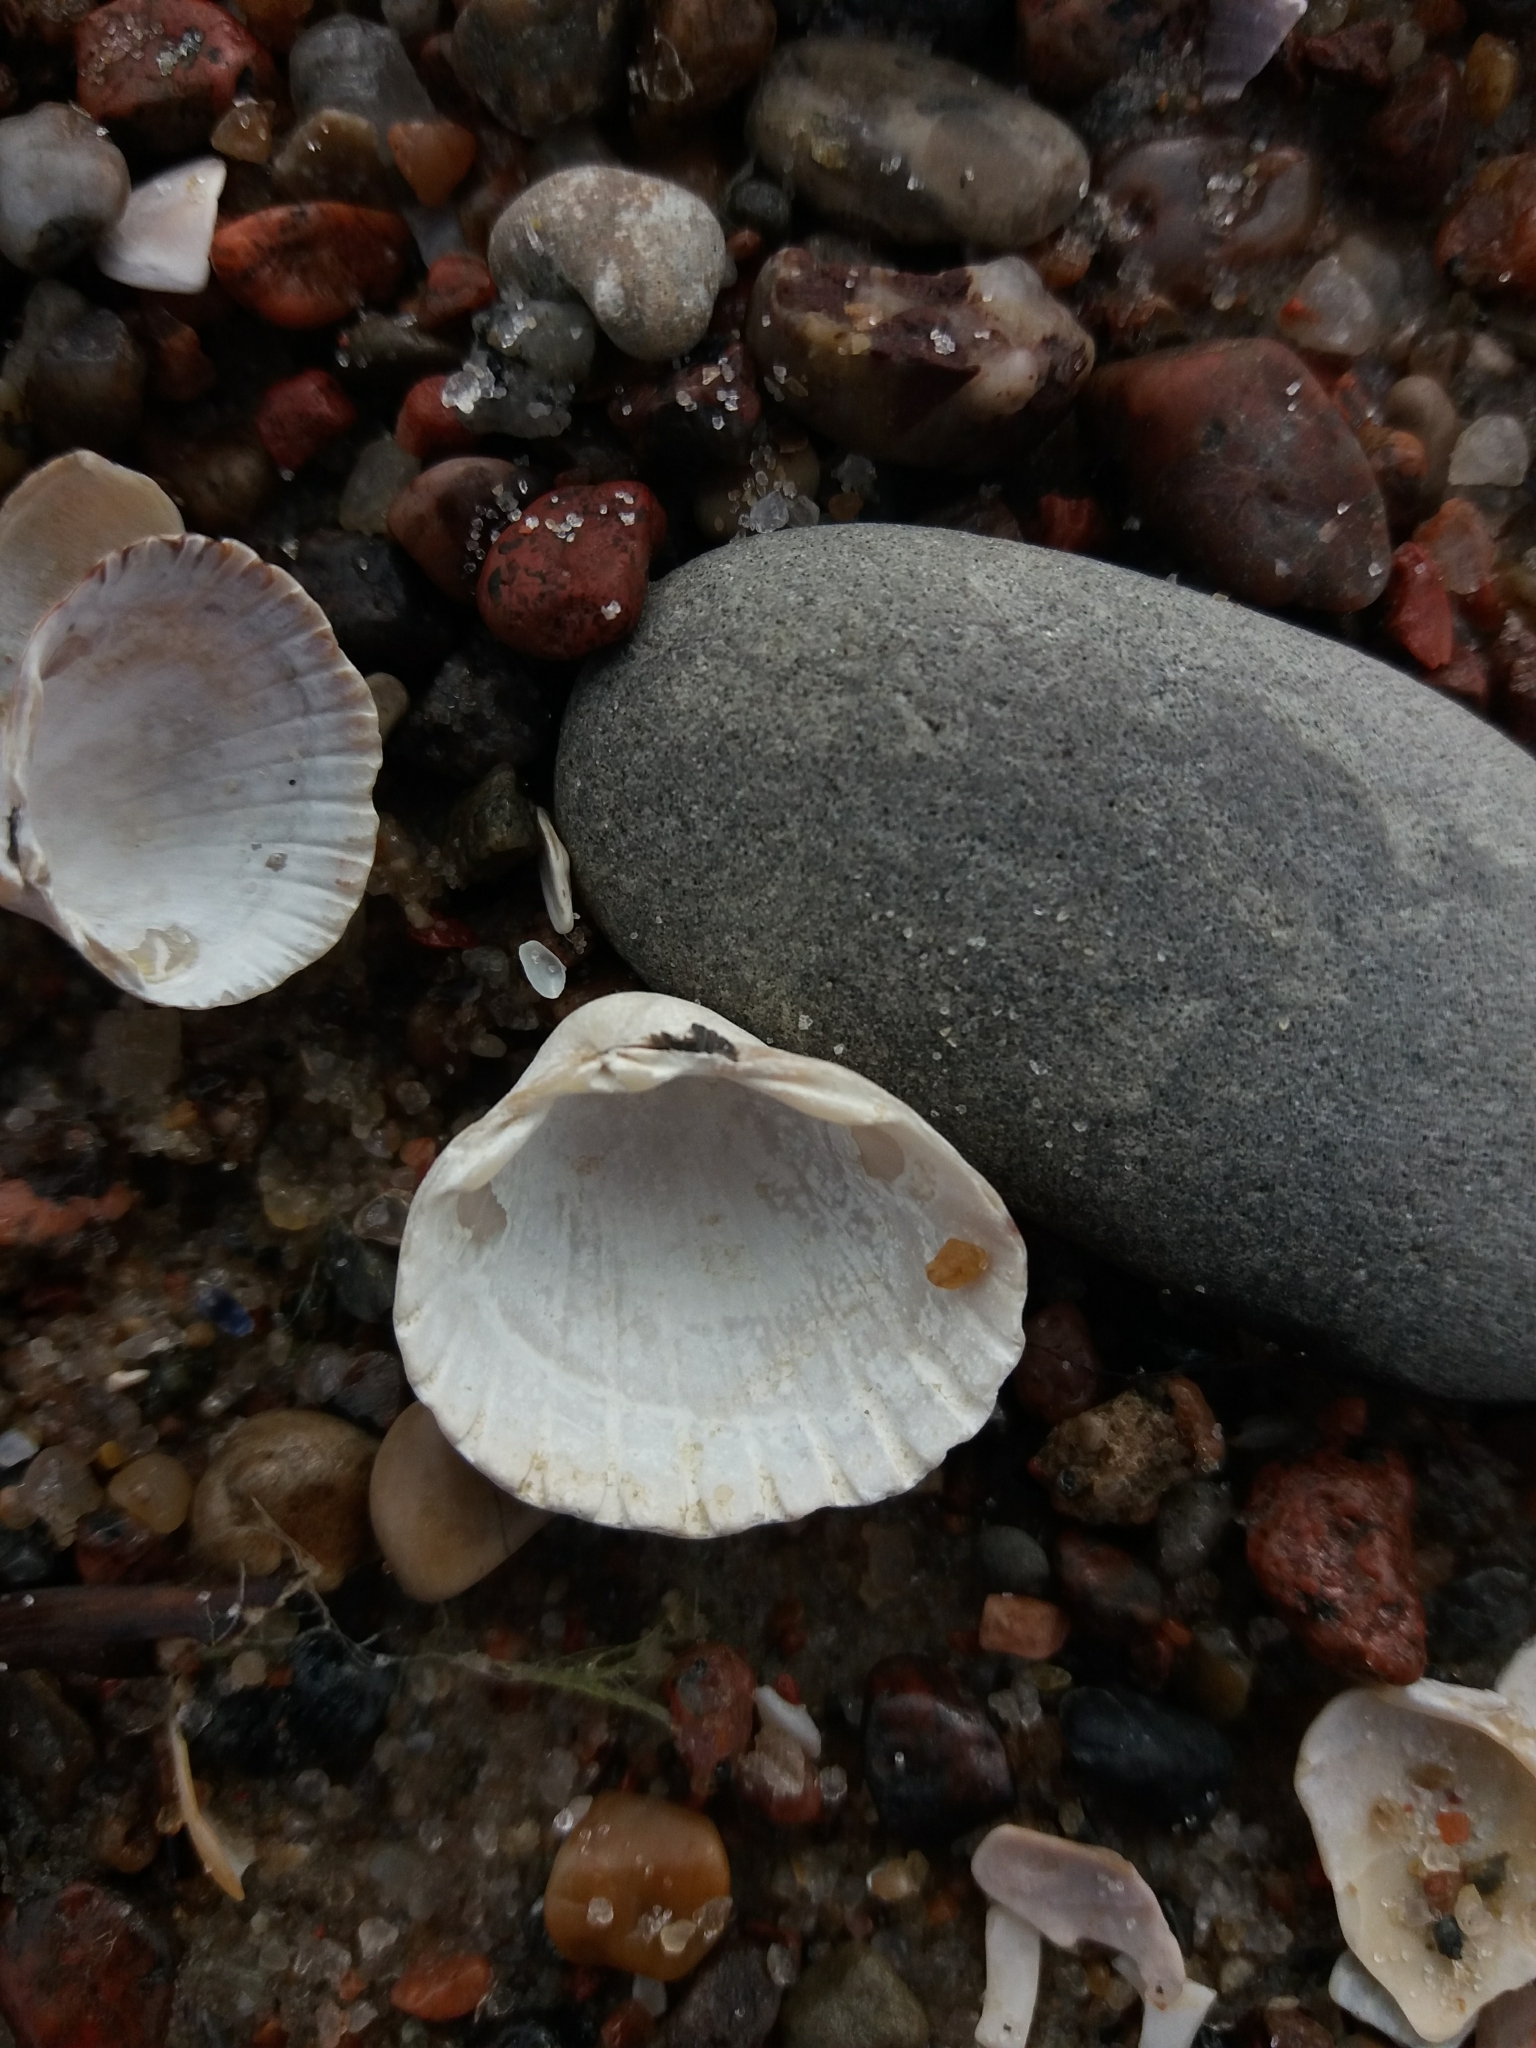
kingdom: Animalia
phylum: Mollusca
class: Bivalvia
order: Cardiida
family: Cardiidae
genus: Cerastoderma
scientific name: Cerastoderma glaucum
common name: Lagoon cockle
